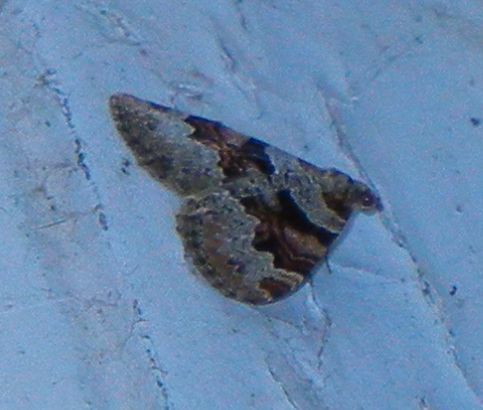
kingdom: Animalia
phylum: Arthropoda
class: Insecta
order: Lepidoptera
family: Geometridae
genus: Xanthorhoe
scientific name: Xanthorhoe designata
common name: Flame carpet
